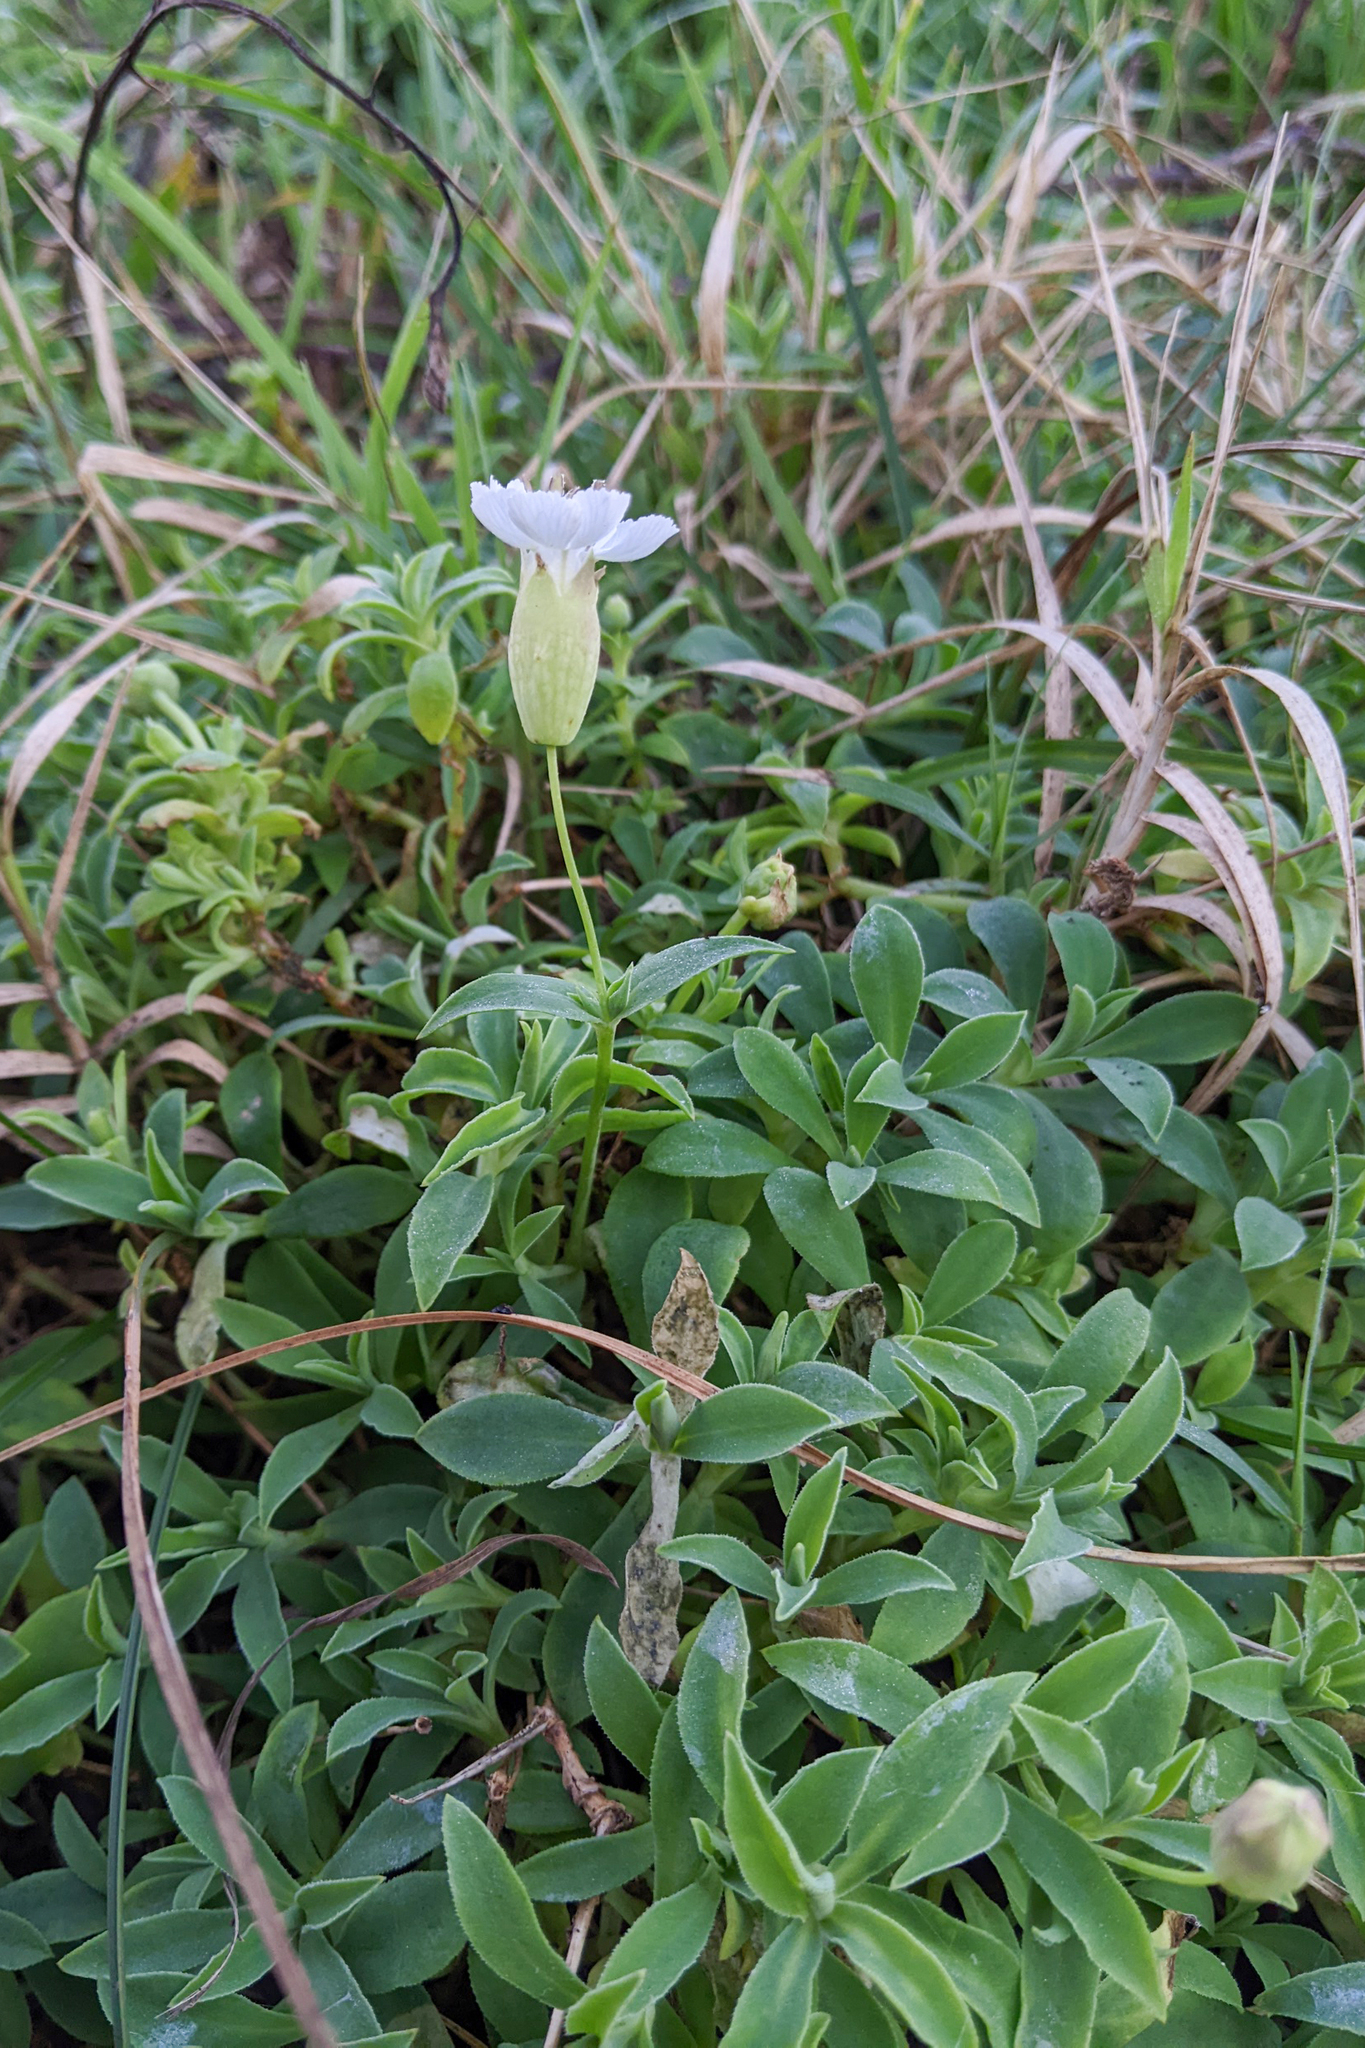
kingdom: Plantae
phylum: Tracheophyta
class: Magnoliopsida
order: Caryophyllales
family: Caryophyllaceae
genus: Silene
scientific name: Silene uniflora
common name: Sea campion
